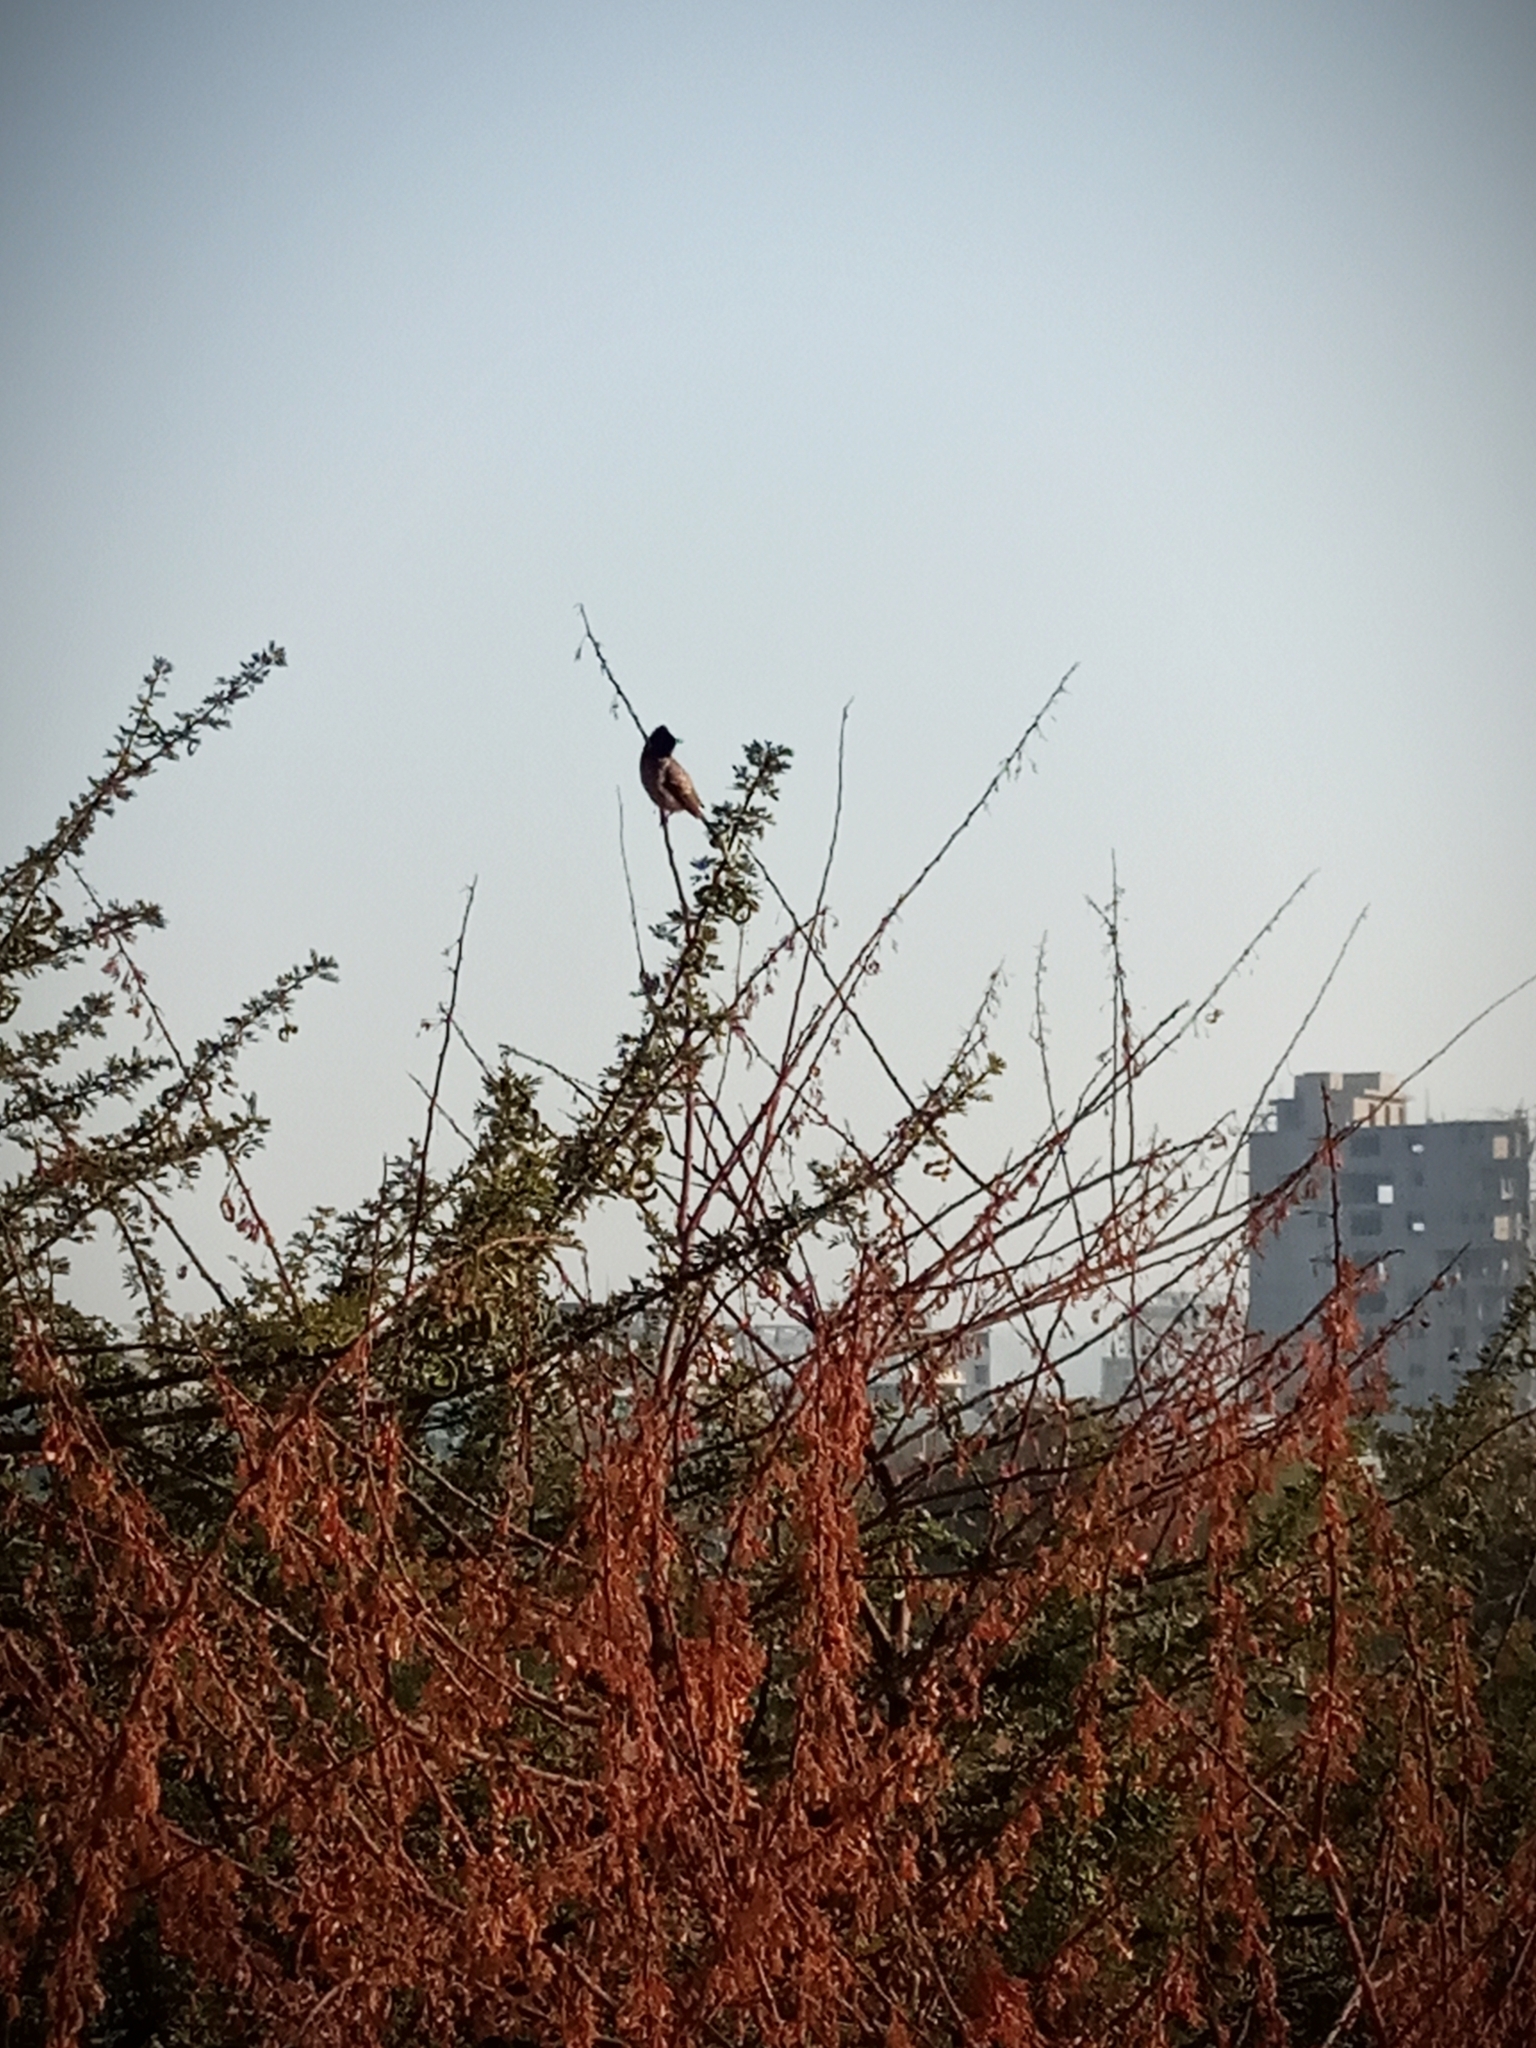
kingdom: Animalia
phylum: Chordata
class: Aves
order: Passeriformes
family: Pycnonotidae
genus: Pycnonotus
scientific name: Pycnonotus cafer
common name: Red-vented bulbul
